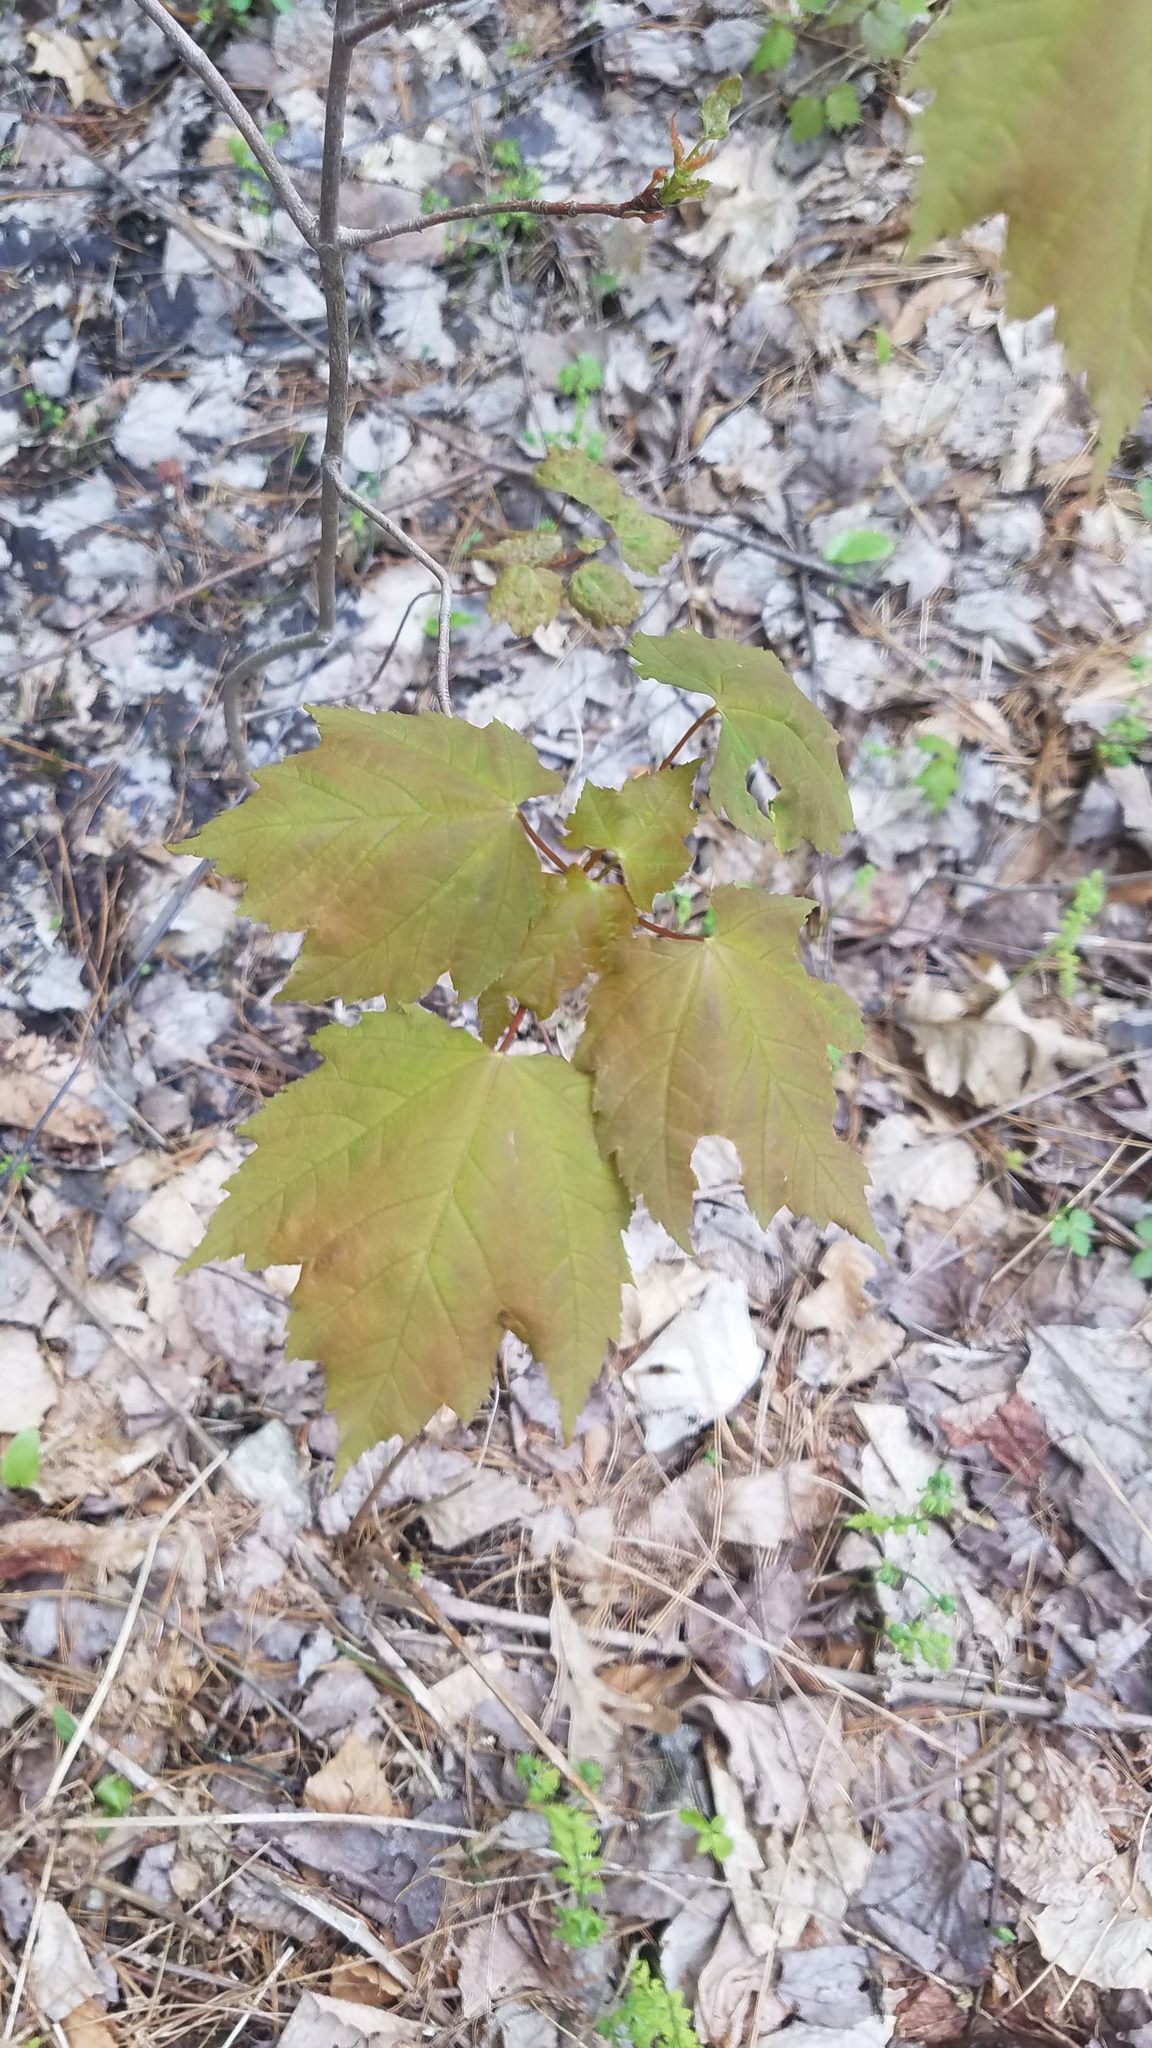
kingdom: Plantae
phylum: Tracheophyta
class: Magnoliopsida
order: Sapindales
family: Sapindaceae
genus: Acer
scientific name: Acer rubrum
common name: Red maple
